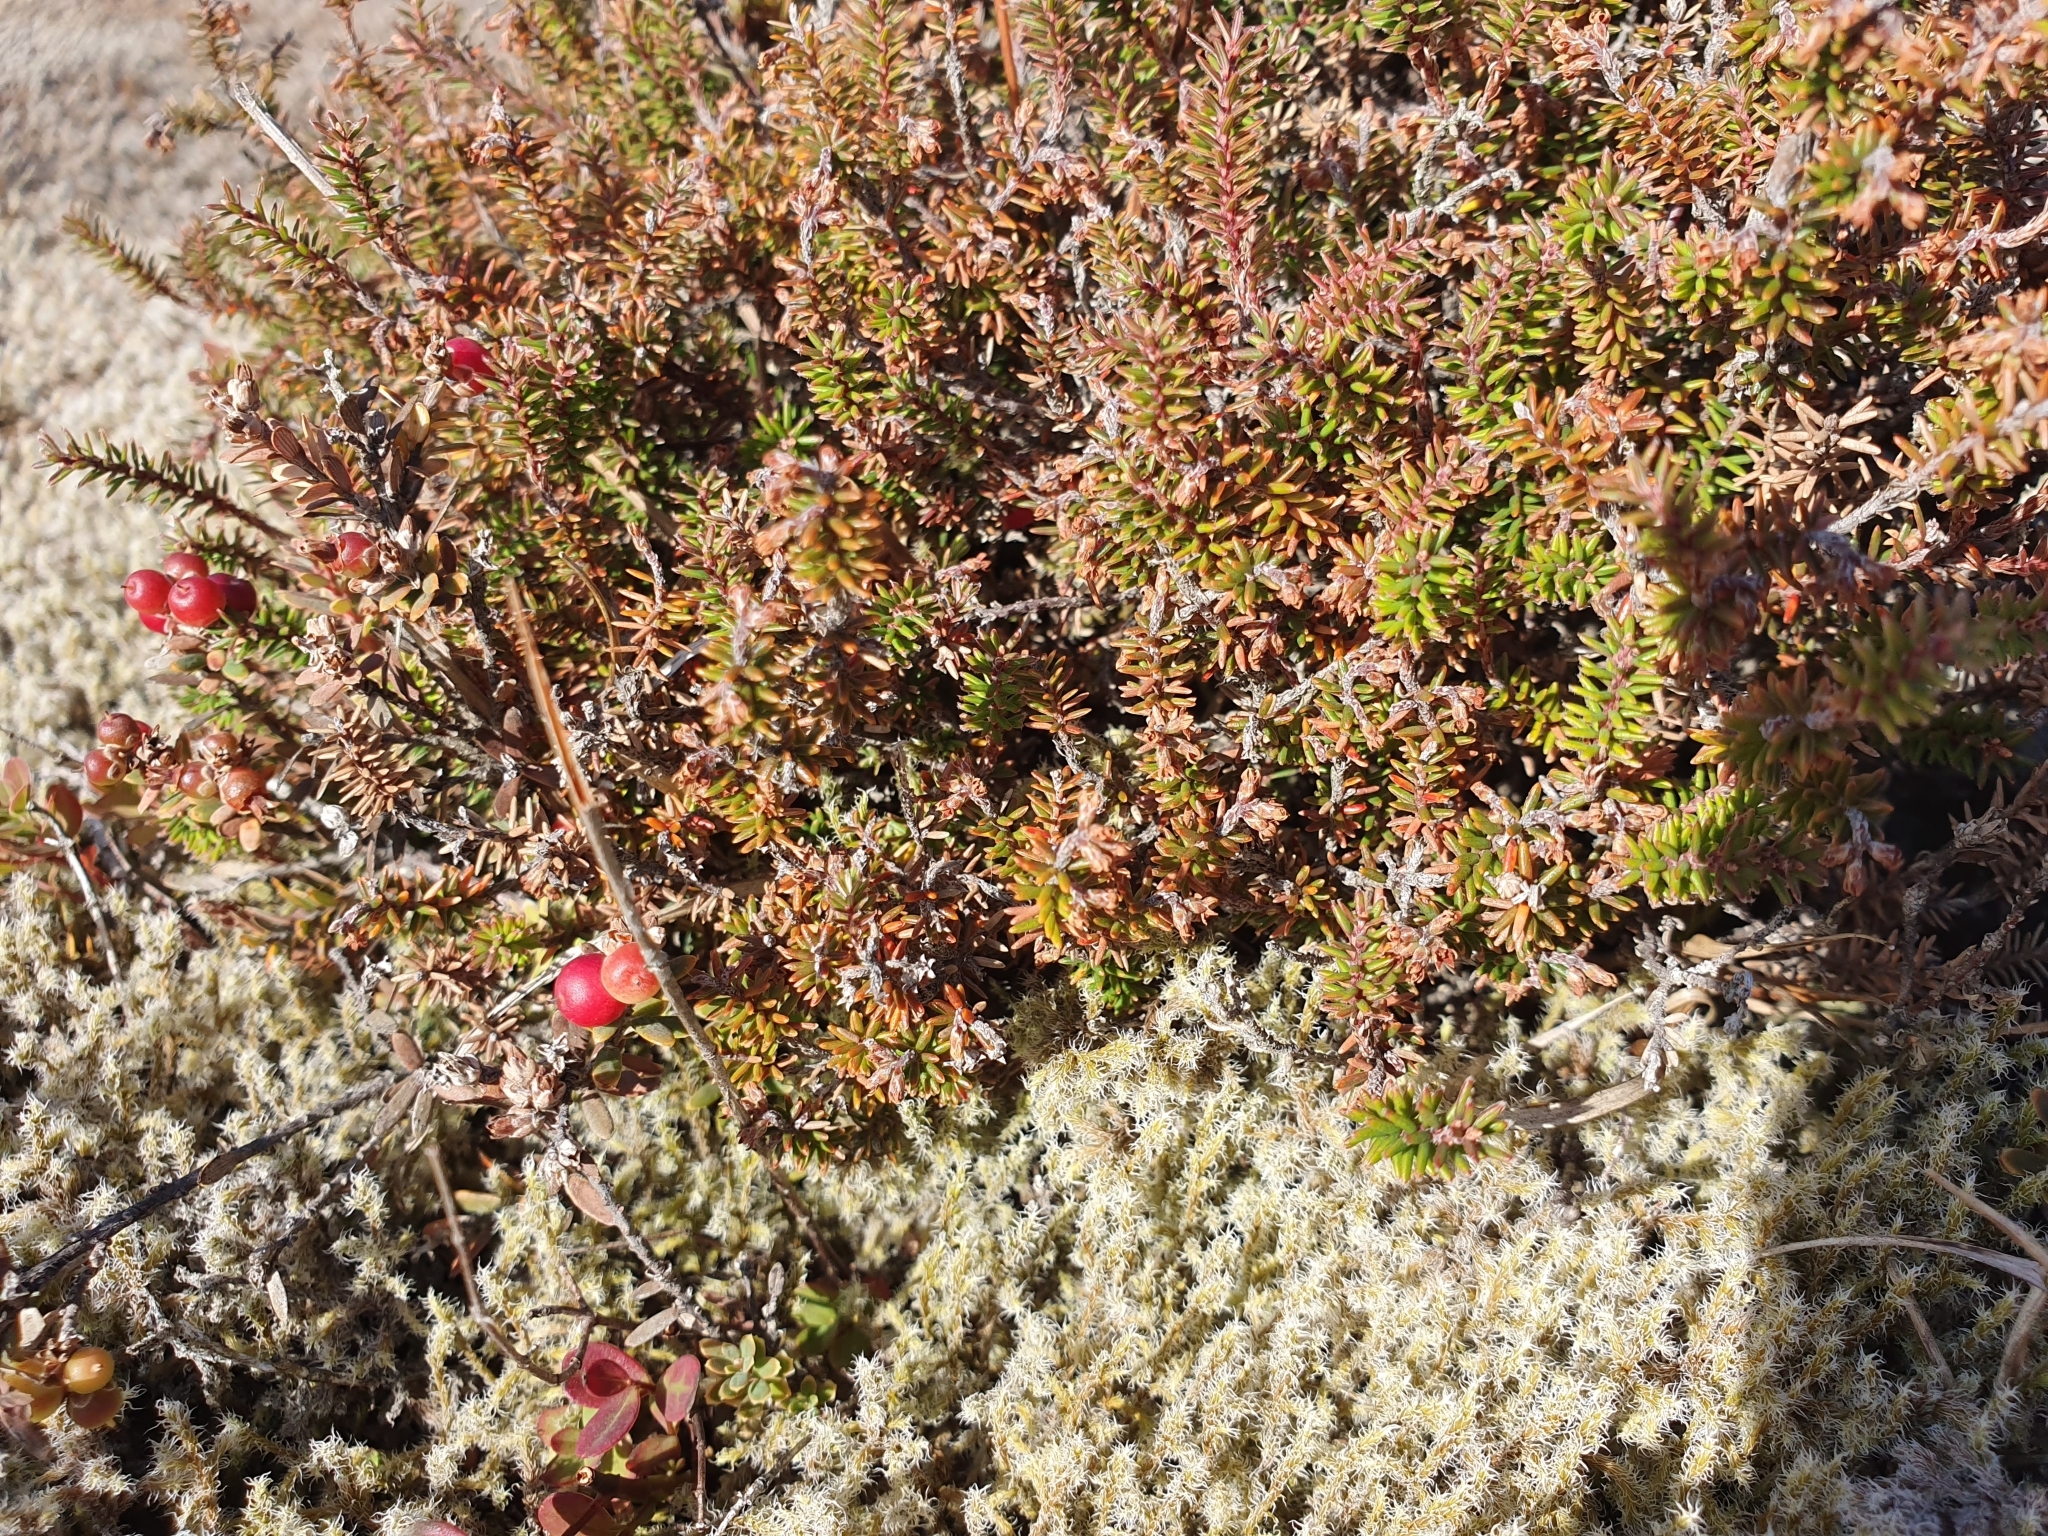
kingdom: Plantae
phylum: Tracheophyta
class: Magnoliopsida
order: Ericales
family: Ericaceae
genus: Androstoma
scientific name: Androstoma empetrifolia
